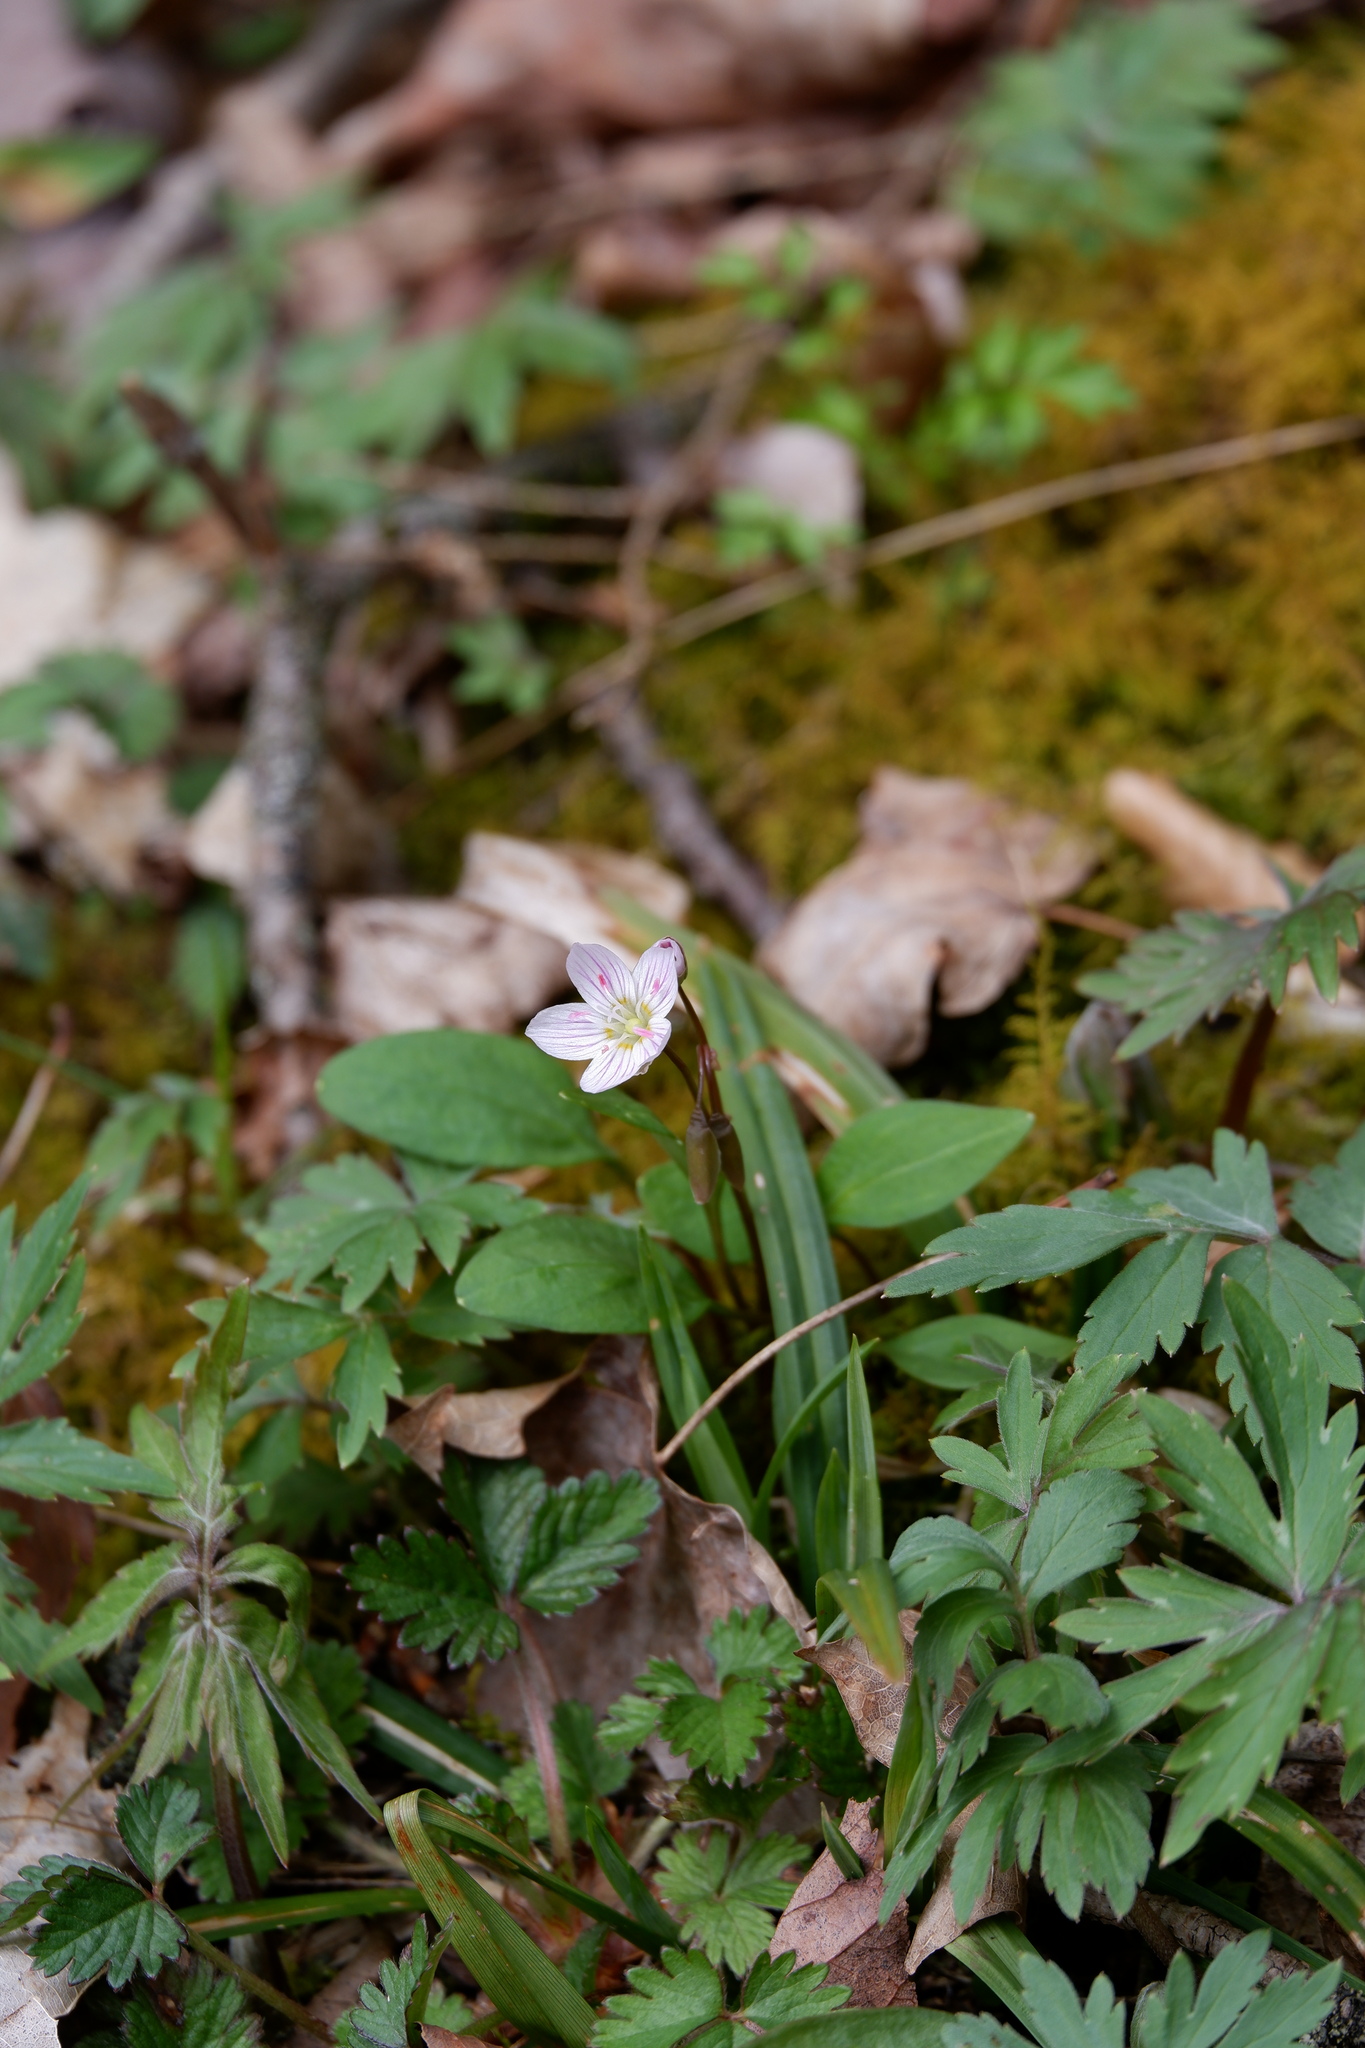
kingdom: Plantae
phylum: Tracheophyta
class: Magnoliopsida
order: Caryophyllales
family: Montiaceae
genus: Claytonia
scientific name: Claytonia caroliniana
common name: Carolina spring beauty
